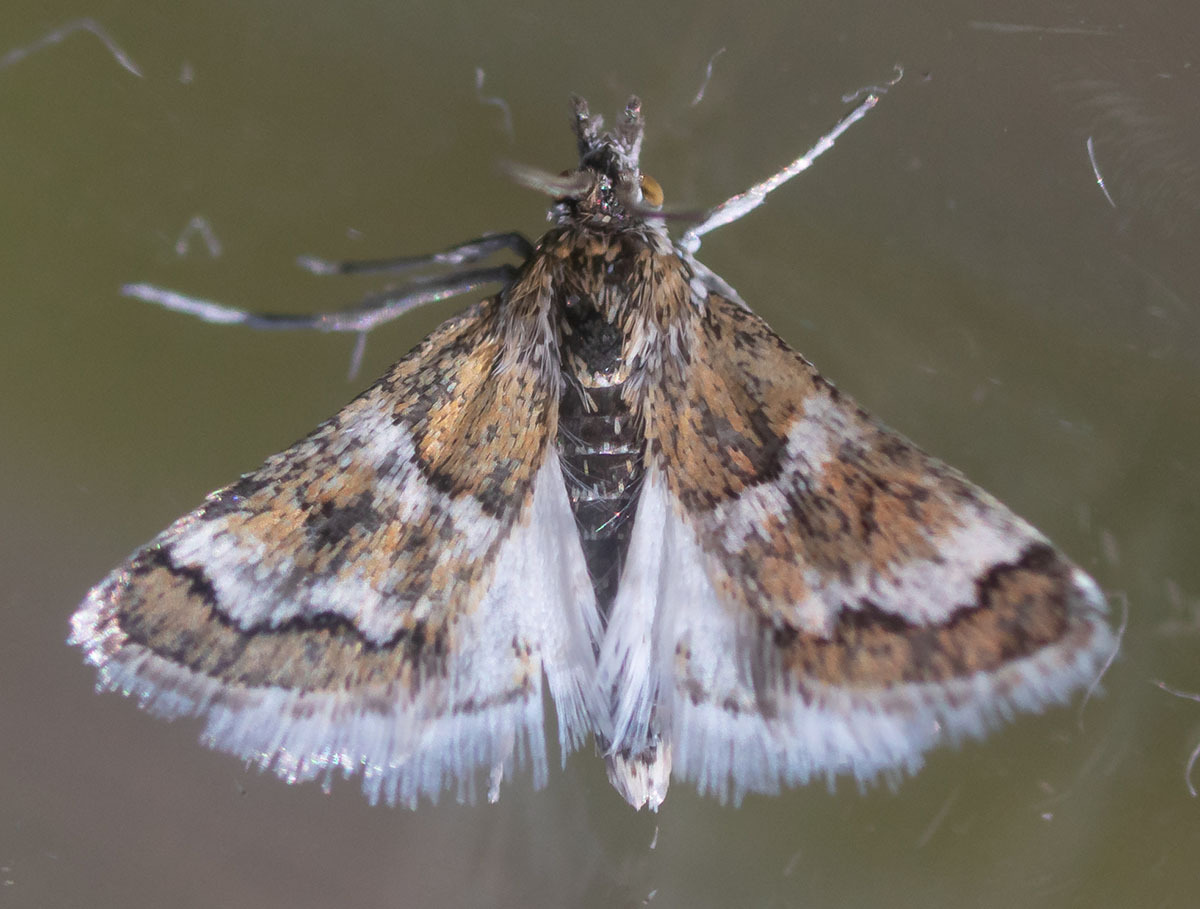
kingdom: Animalia
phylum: Arthropoda
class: Insecta
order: Lepidoptera
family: Crambidae
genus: Nannobotys
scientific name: Nannobotys commortalis
